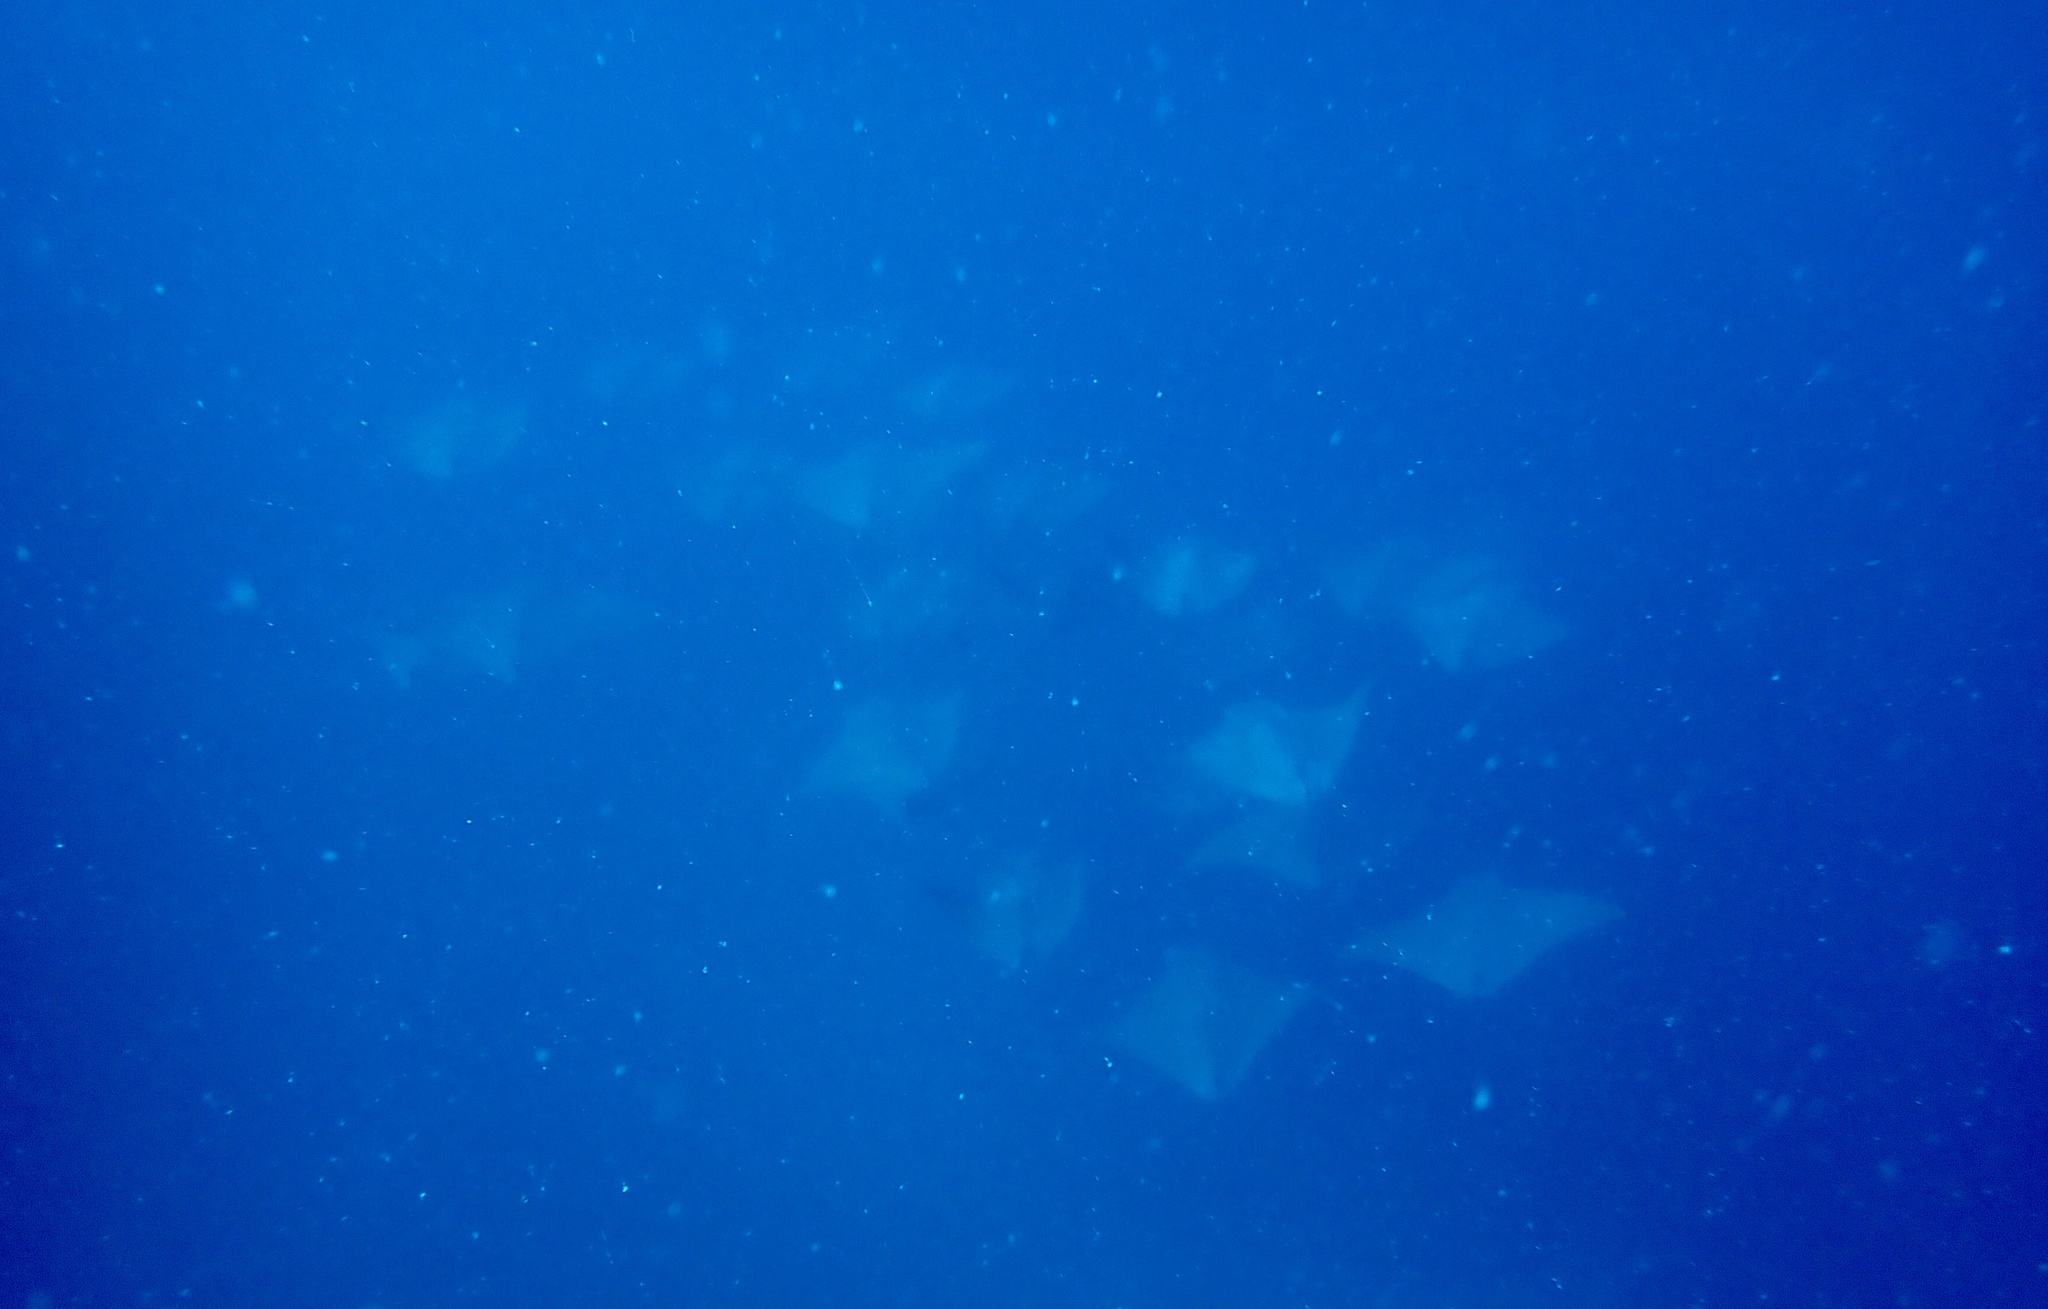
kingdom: Animalia
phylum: Chordata
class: Elasmobranchii
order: Myliobatiformes
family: Myliobatidae
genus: Rhinoptera
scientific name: Rhinoptera neglecta
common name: Australian cownose ray
